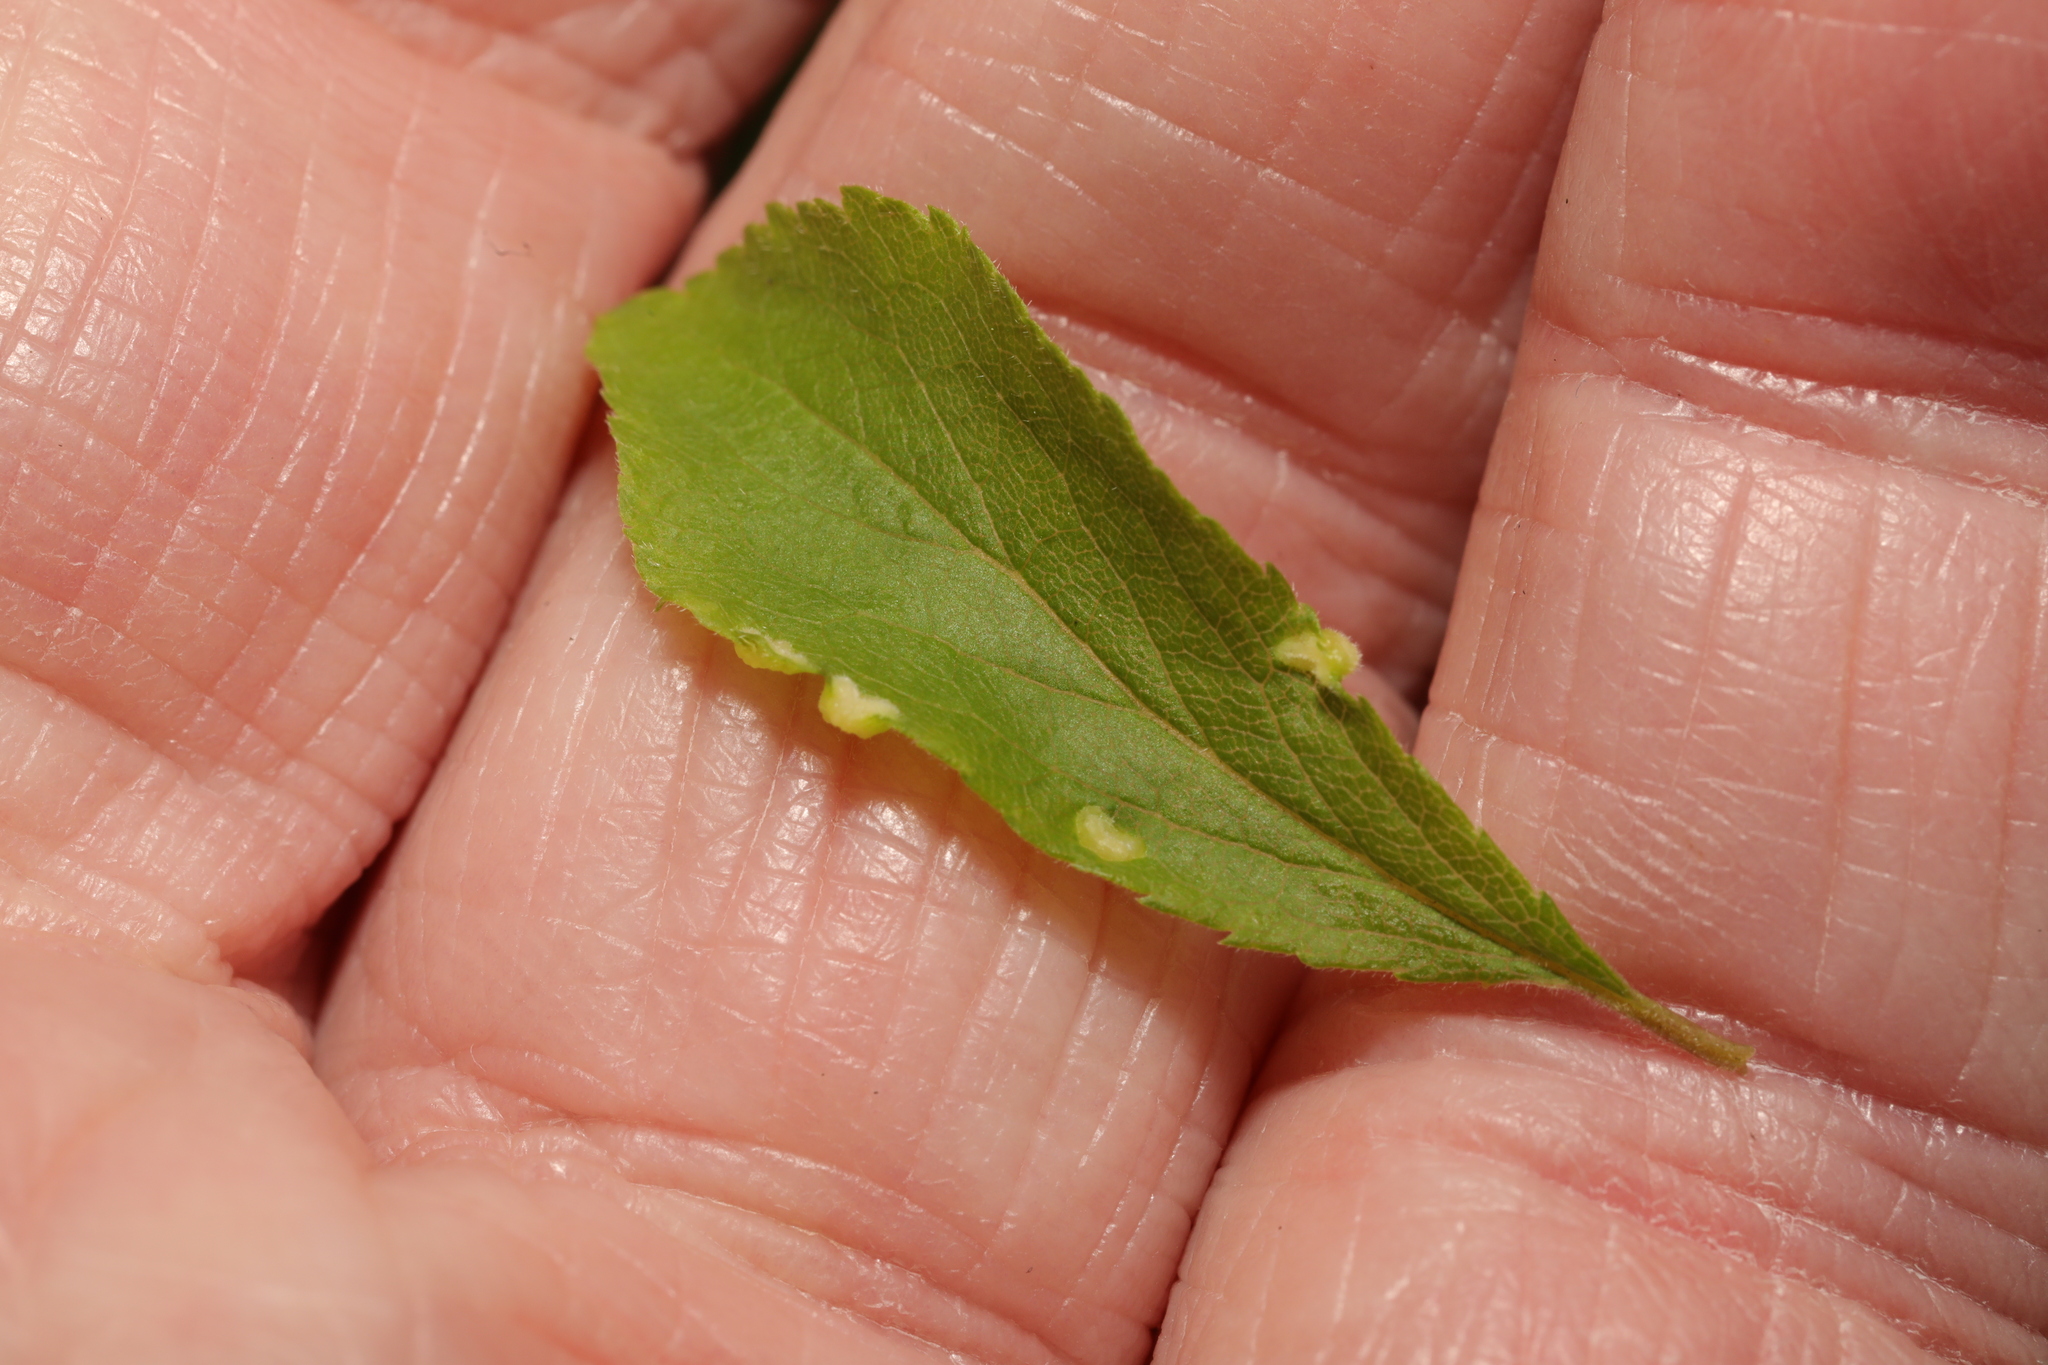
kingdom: Animalia
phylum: Arthropoda
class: Arachnida
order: Trombidiformes
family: Eriophyidae
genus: Eriophyes
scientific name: Eriophyes similis
